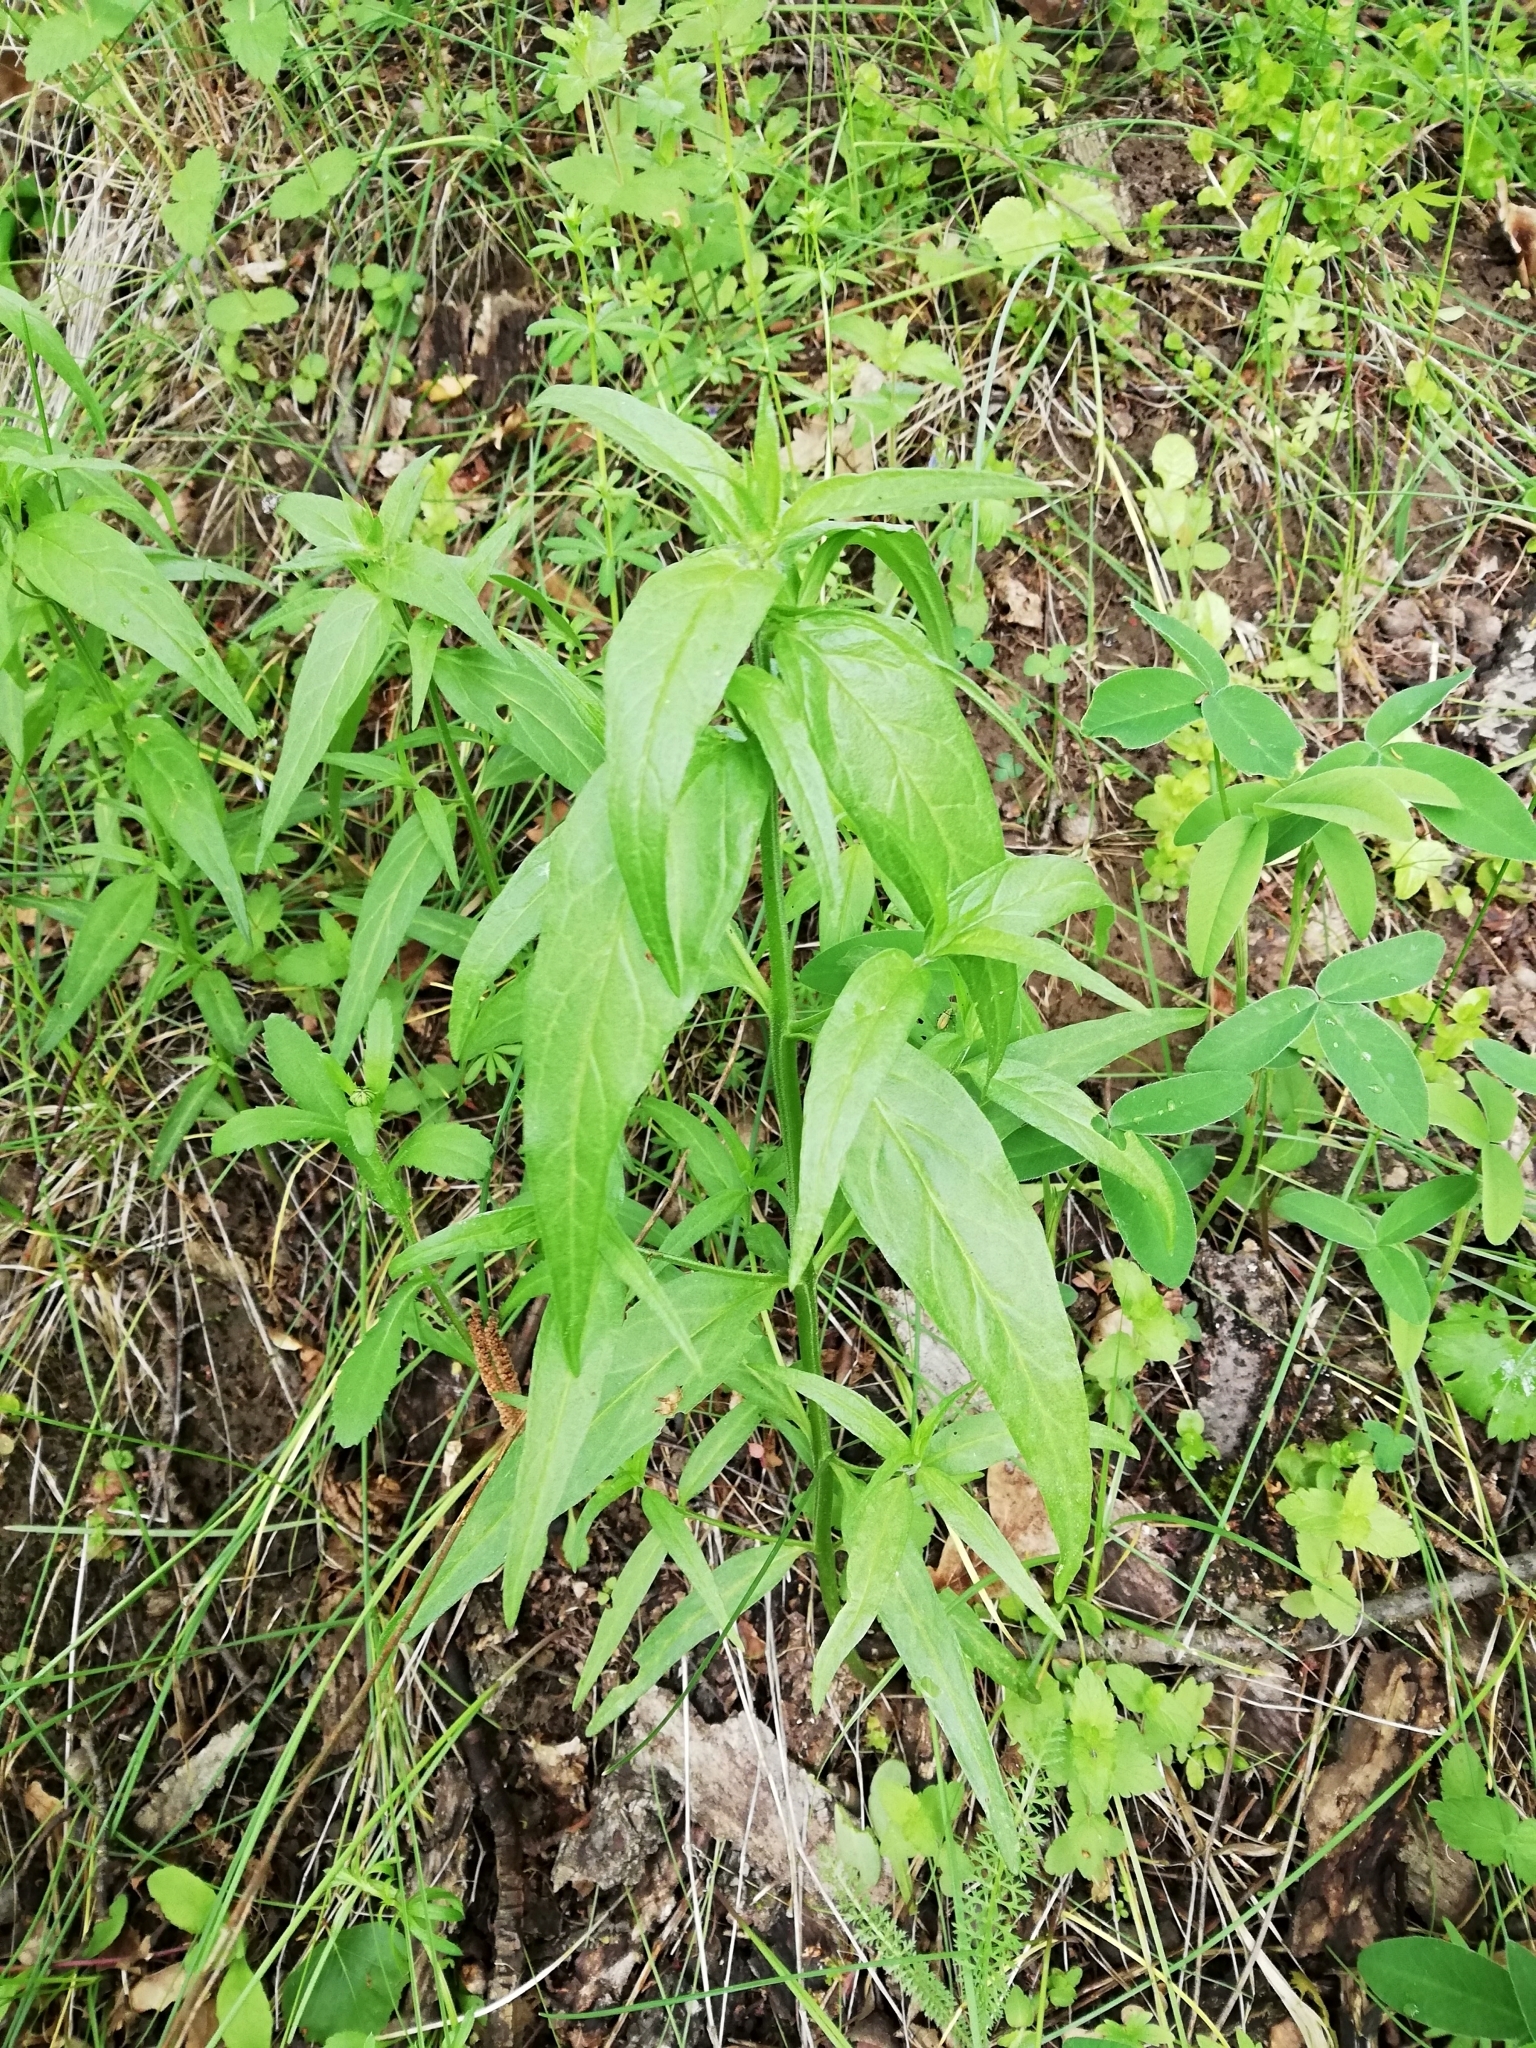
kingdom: Plantae
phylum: Tracheophyta
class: Magnoliopsida
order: Lamiales
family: Orobanchaceae
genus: Melampyrum
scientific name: Melampyrum nemorosum
